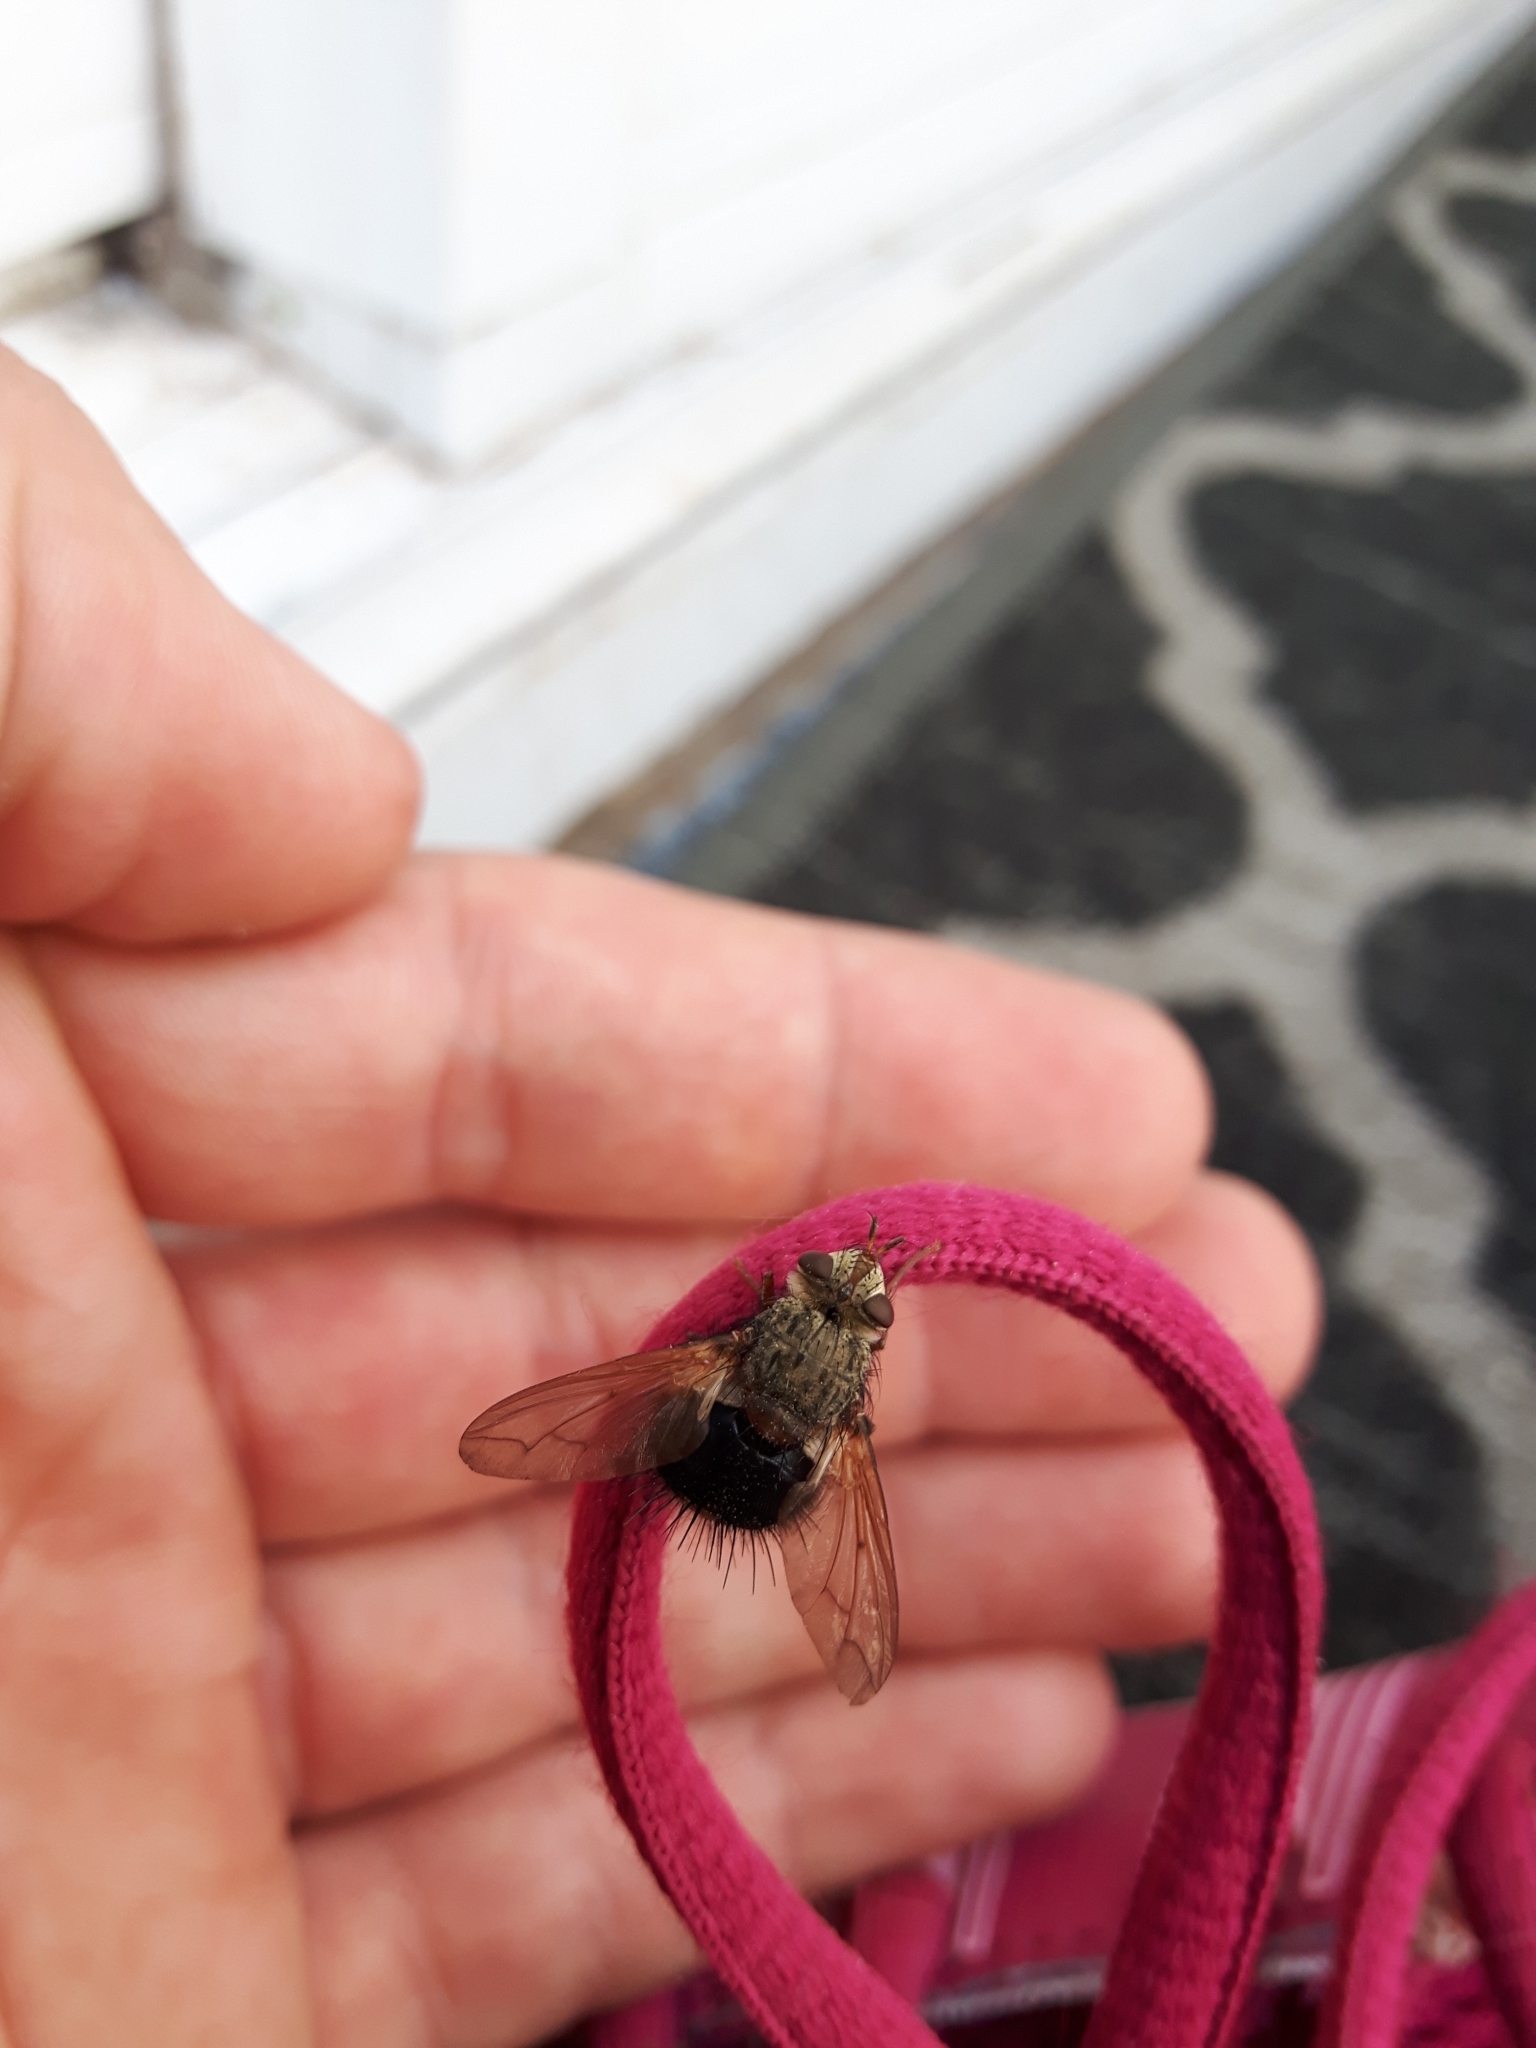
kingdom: Animalia
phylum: Arthropoda
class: Insecta
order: Diptera
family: Tachinidae
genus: Epalpus
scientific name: Epalpus signifer
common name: Early tachinid fly
